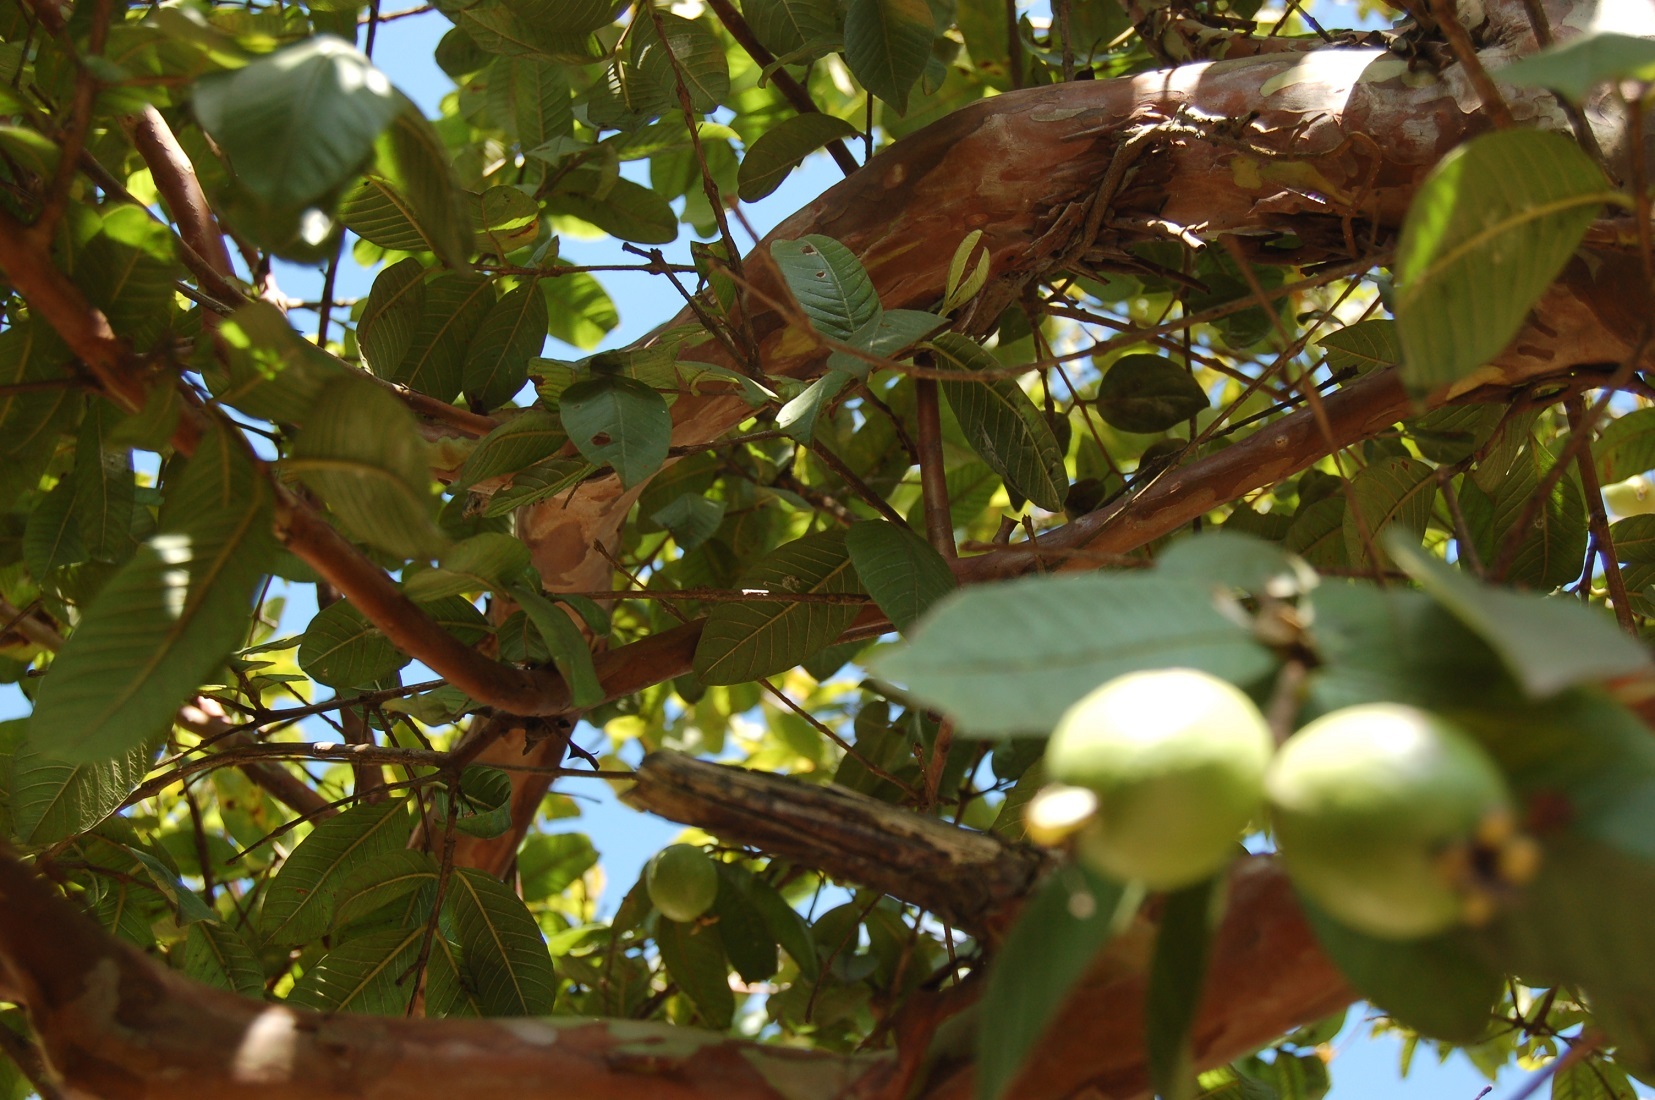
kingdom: Plantae
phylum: Tracheophyta
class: Magnoliopsida
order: Myrtales
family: Myrtaceae
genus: Psidium
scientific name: Psidium guajava
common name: Guava
